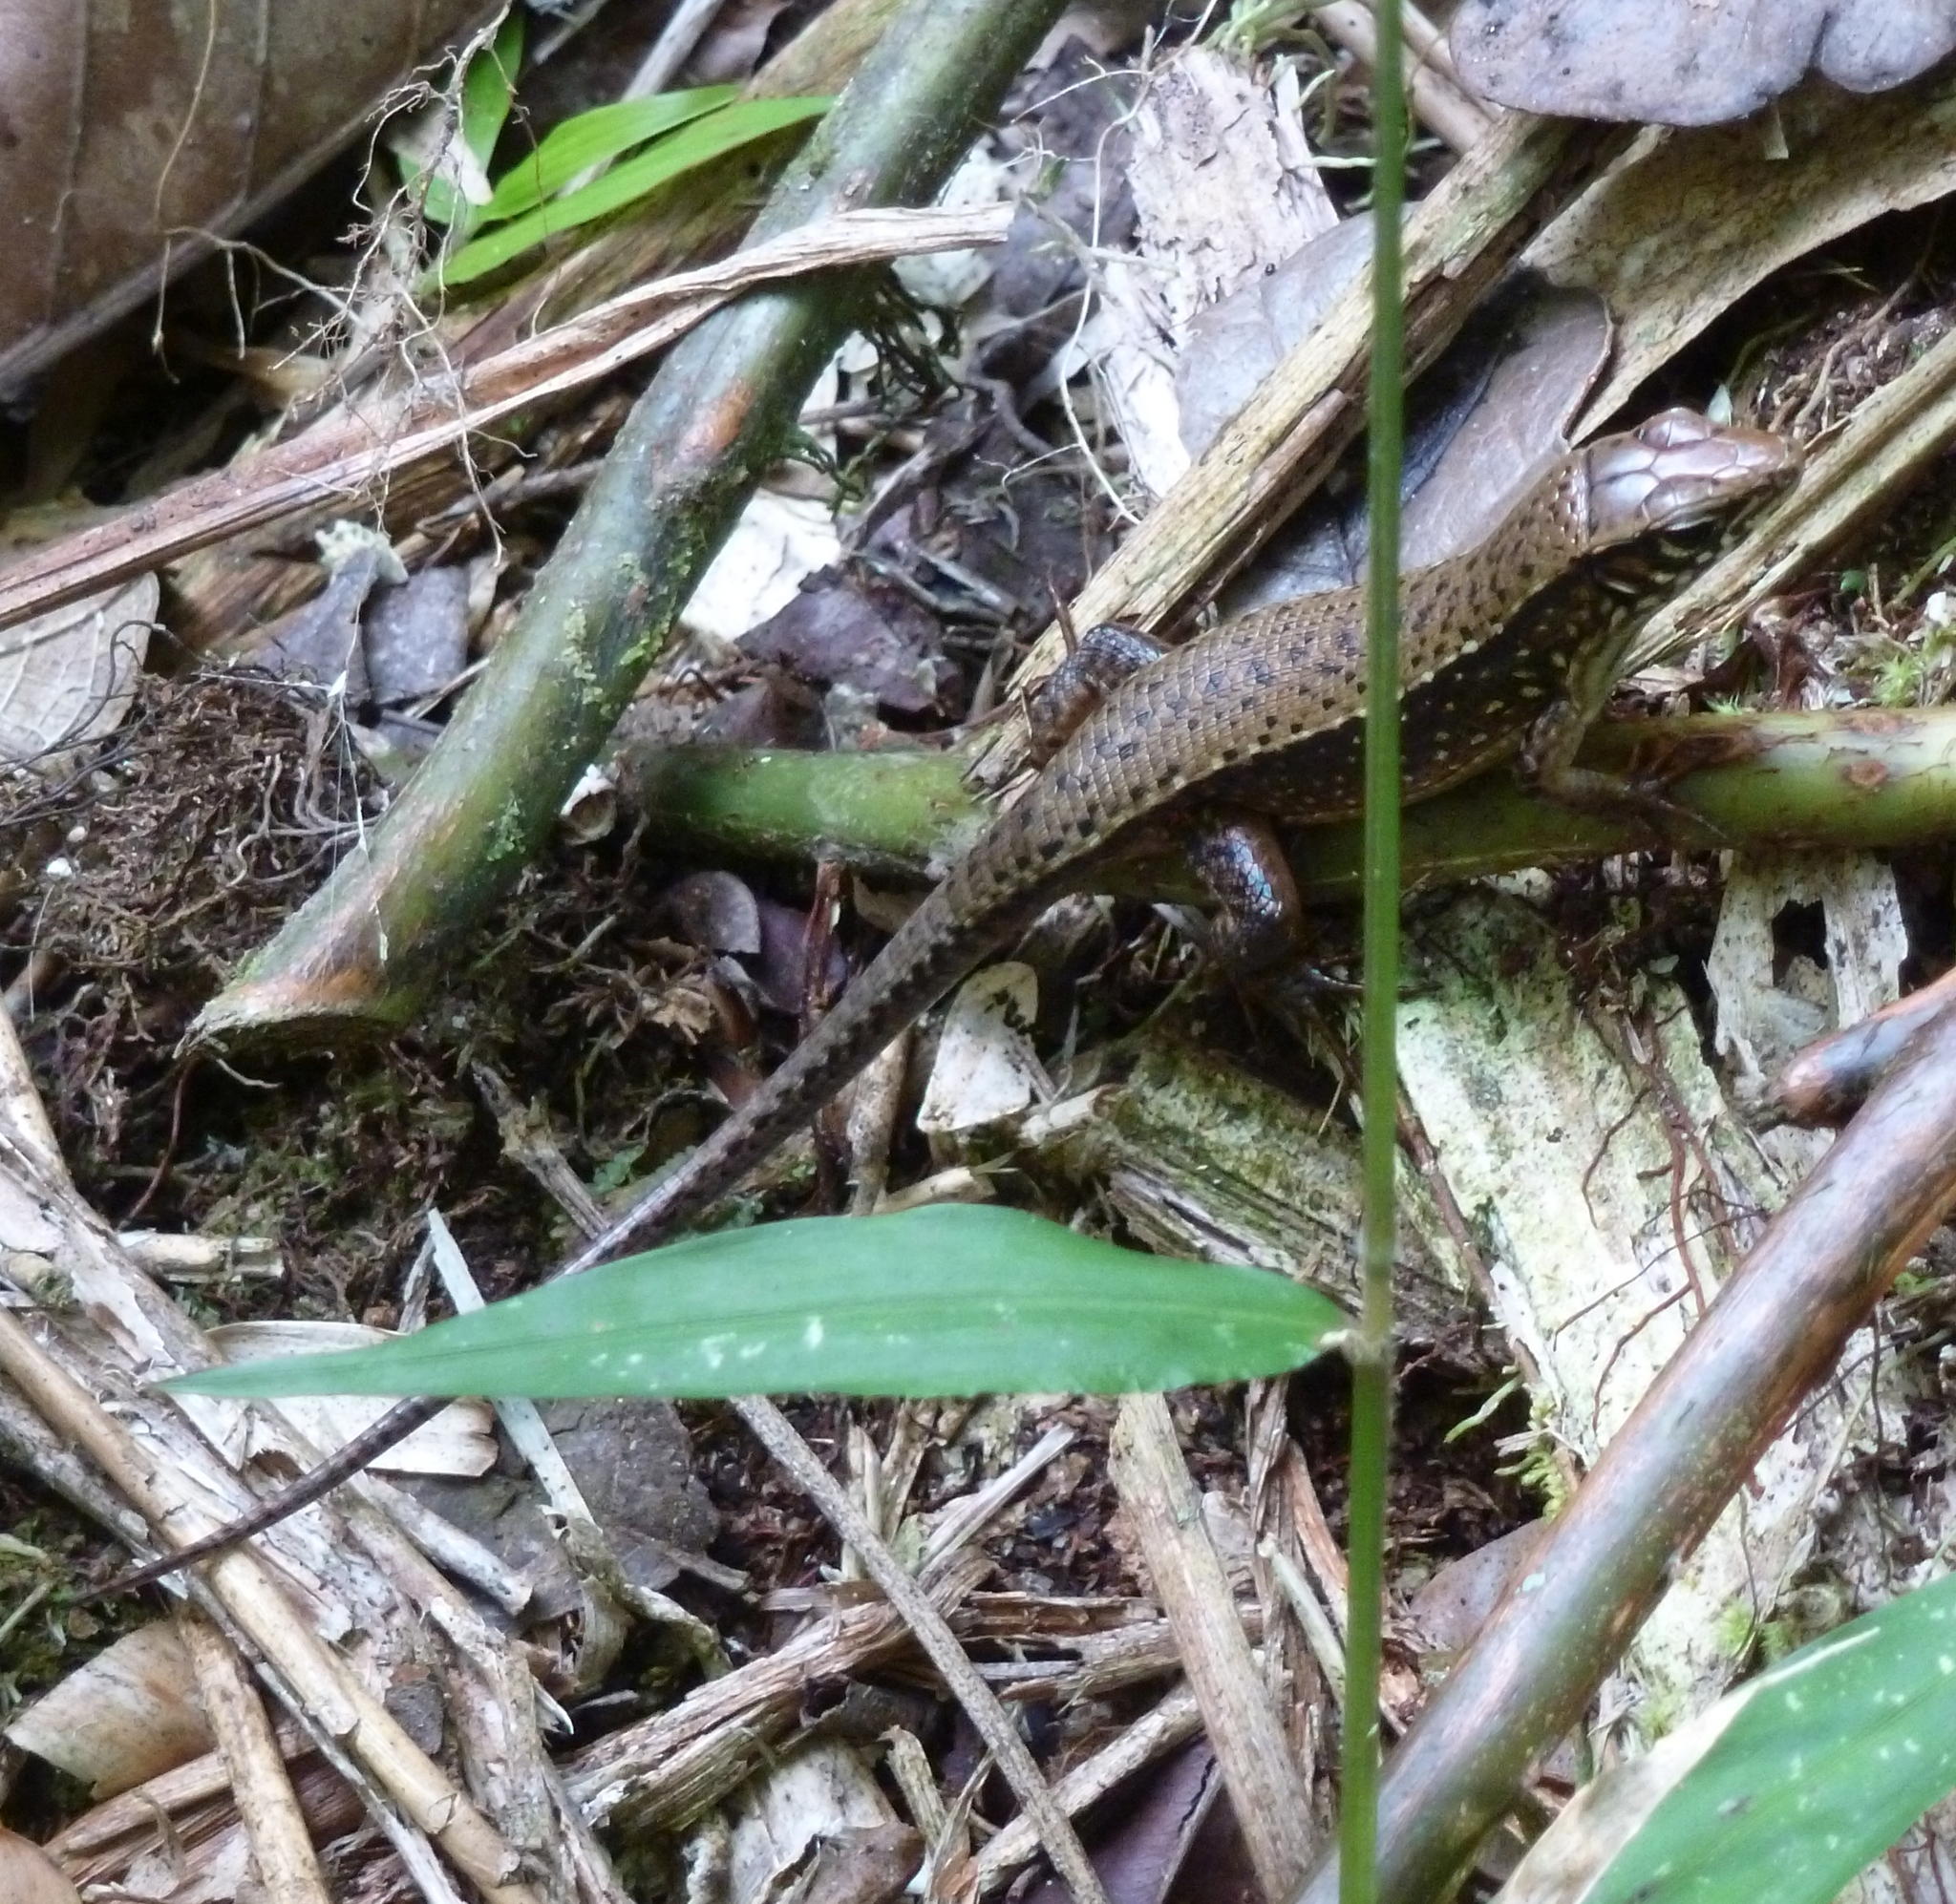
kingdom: Animalia
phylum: Chordata
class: Squamata
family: Gerrhosauridae
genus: Zonosaurus
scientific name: Zonosaurus rufipes
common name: Red-legged girdled lizard
